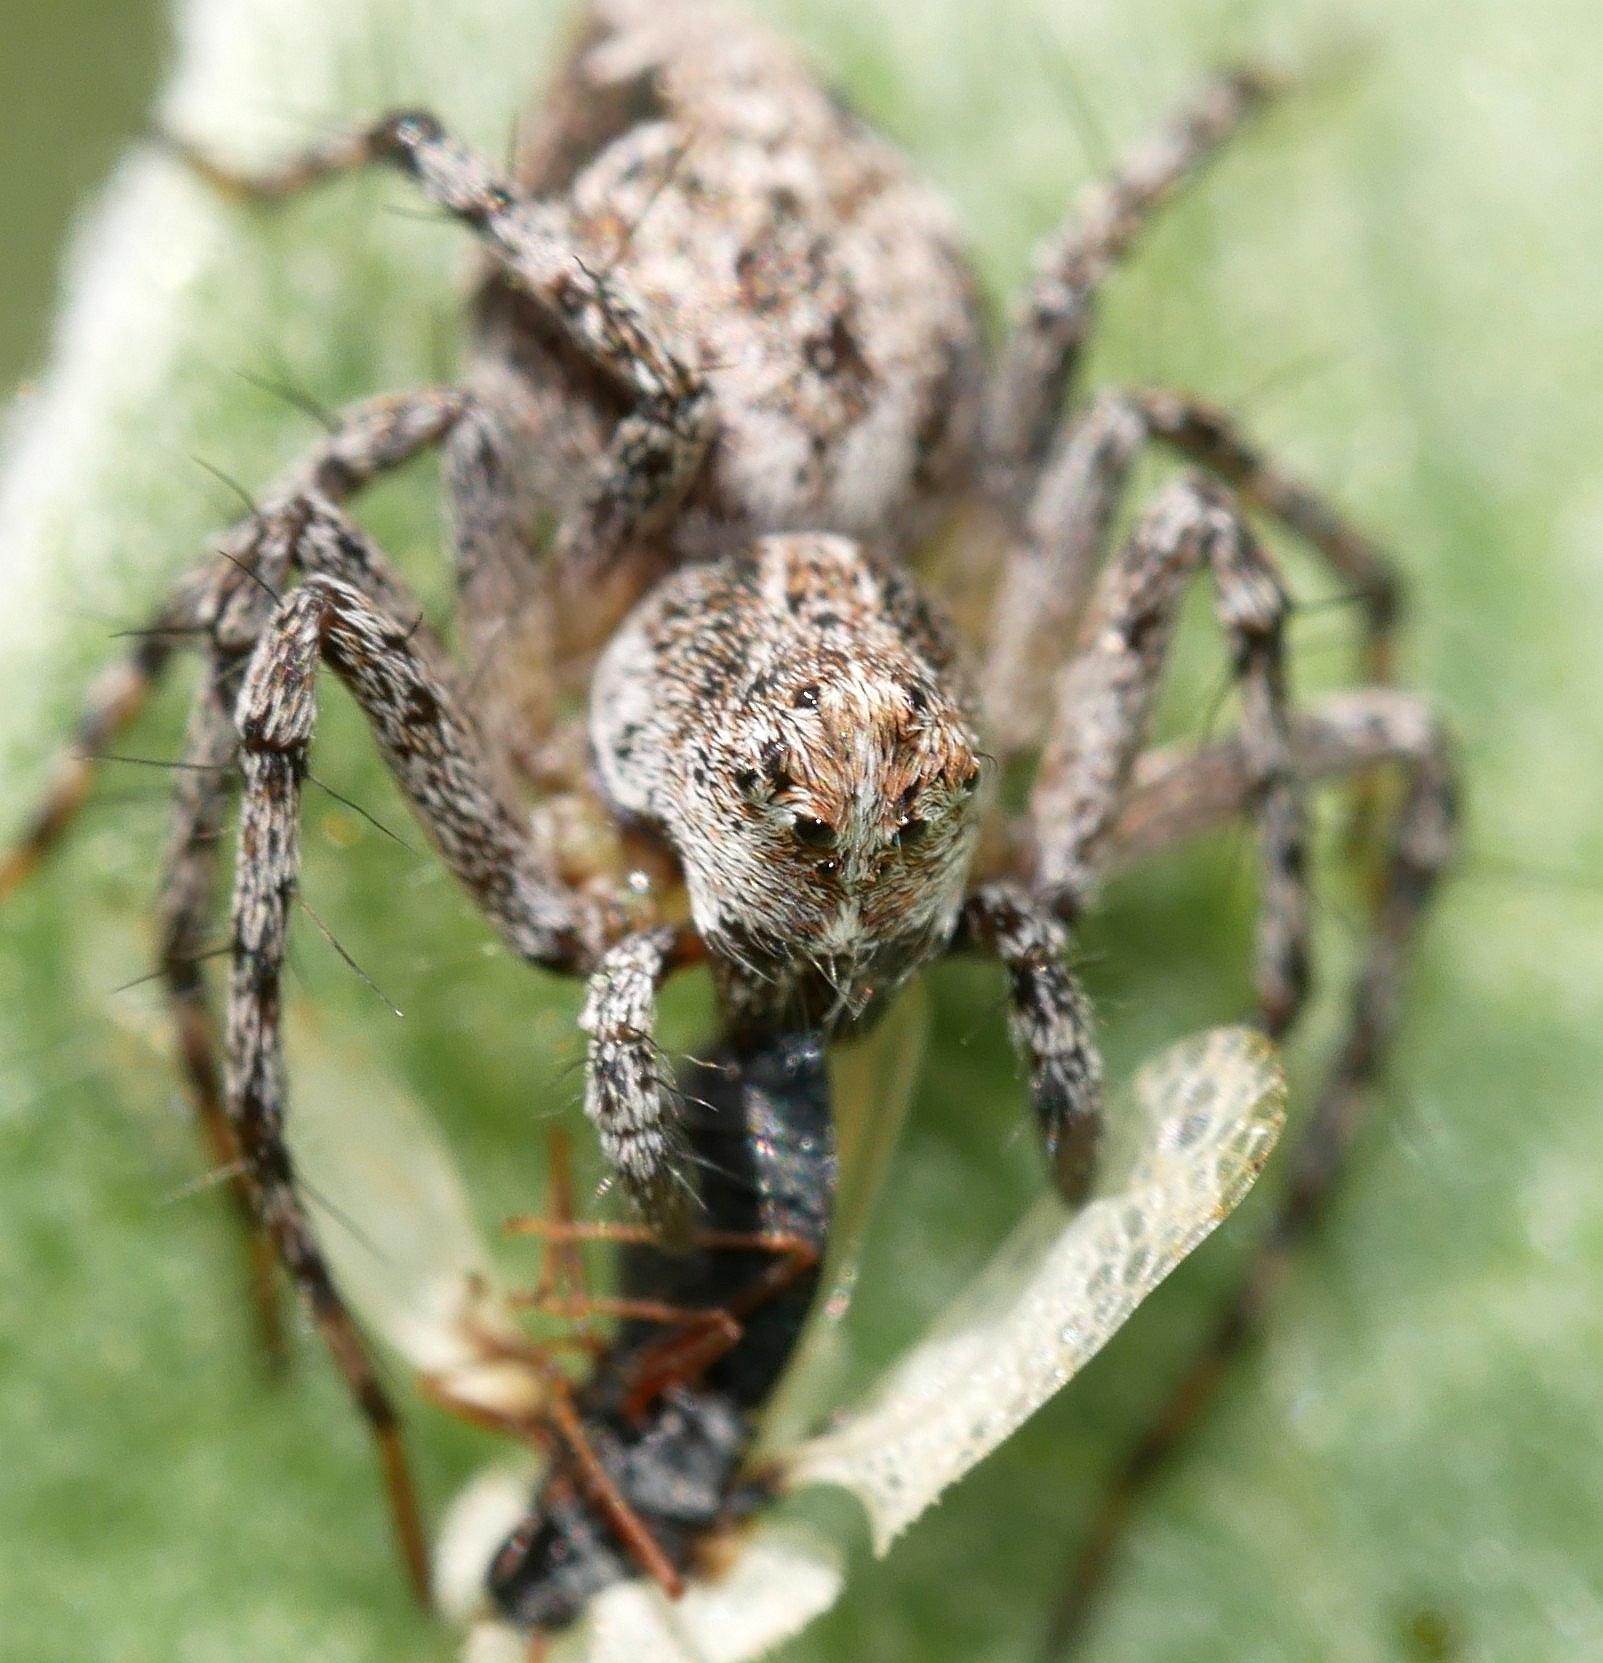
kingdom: Animalia
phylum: Arthropoda
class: Arachnida
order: Araneae
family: Oxyopidae
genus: Oxyopes
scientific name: Oxyopes scalaris
